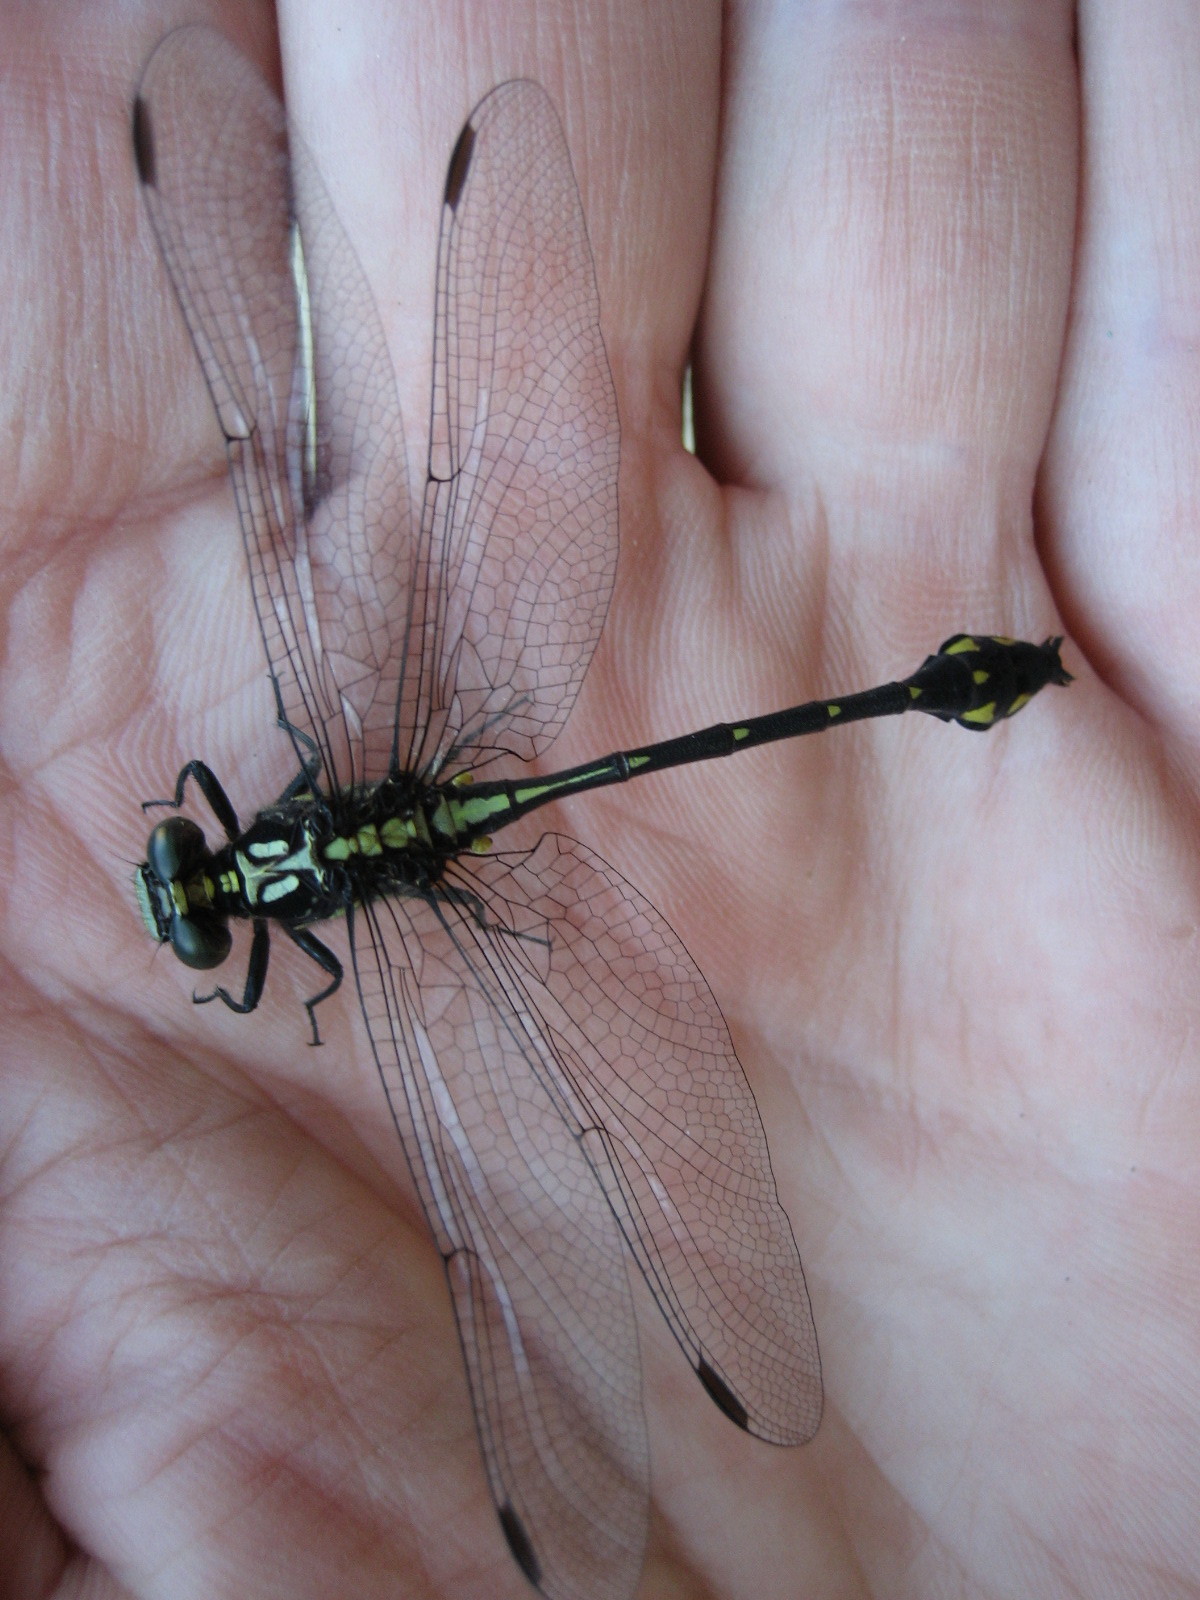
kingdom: Animalia
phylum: Arthropoda
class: Insecta
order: Odonata
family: Gomphidae
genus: Stylurus
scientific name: Stylurus amnicola
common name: Riverine clubtail
